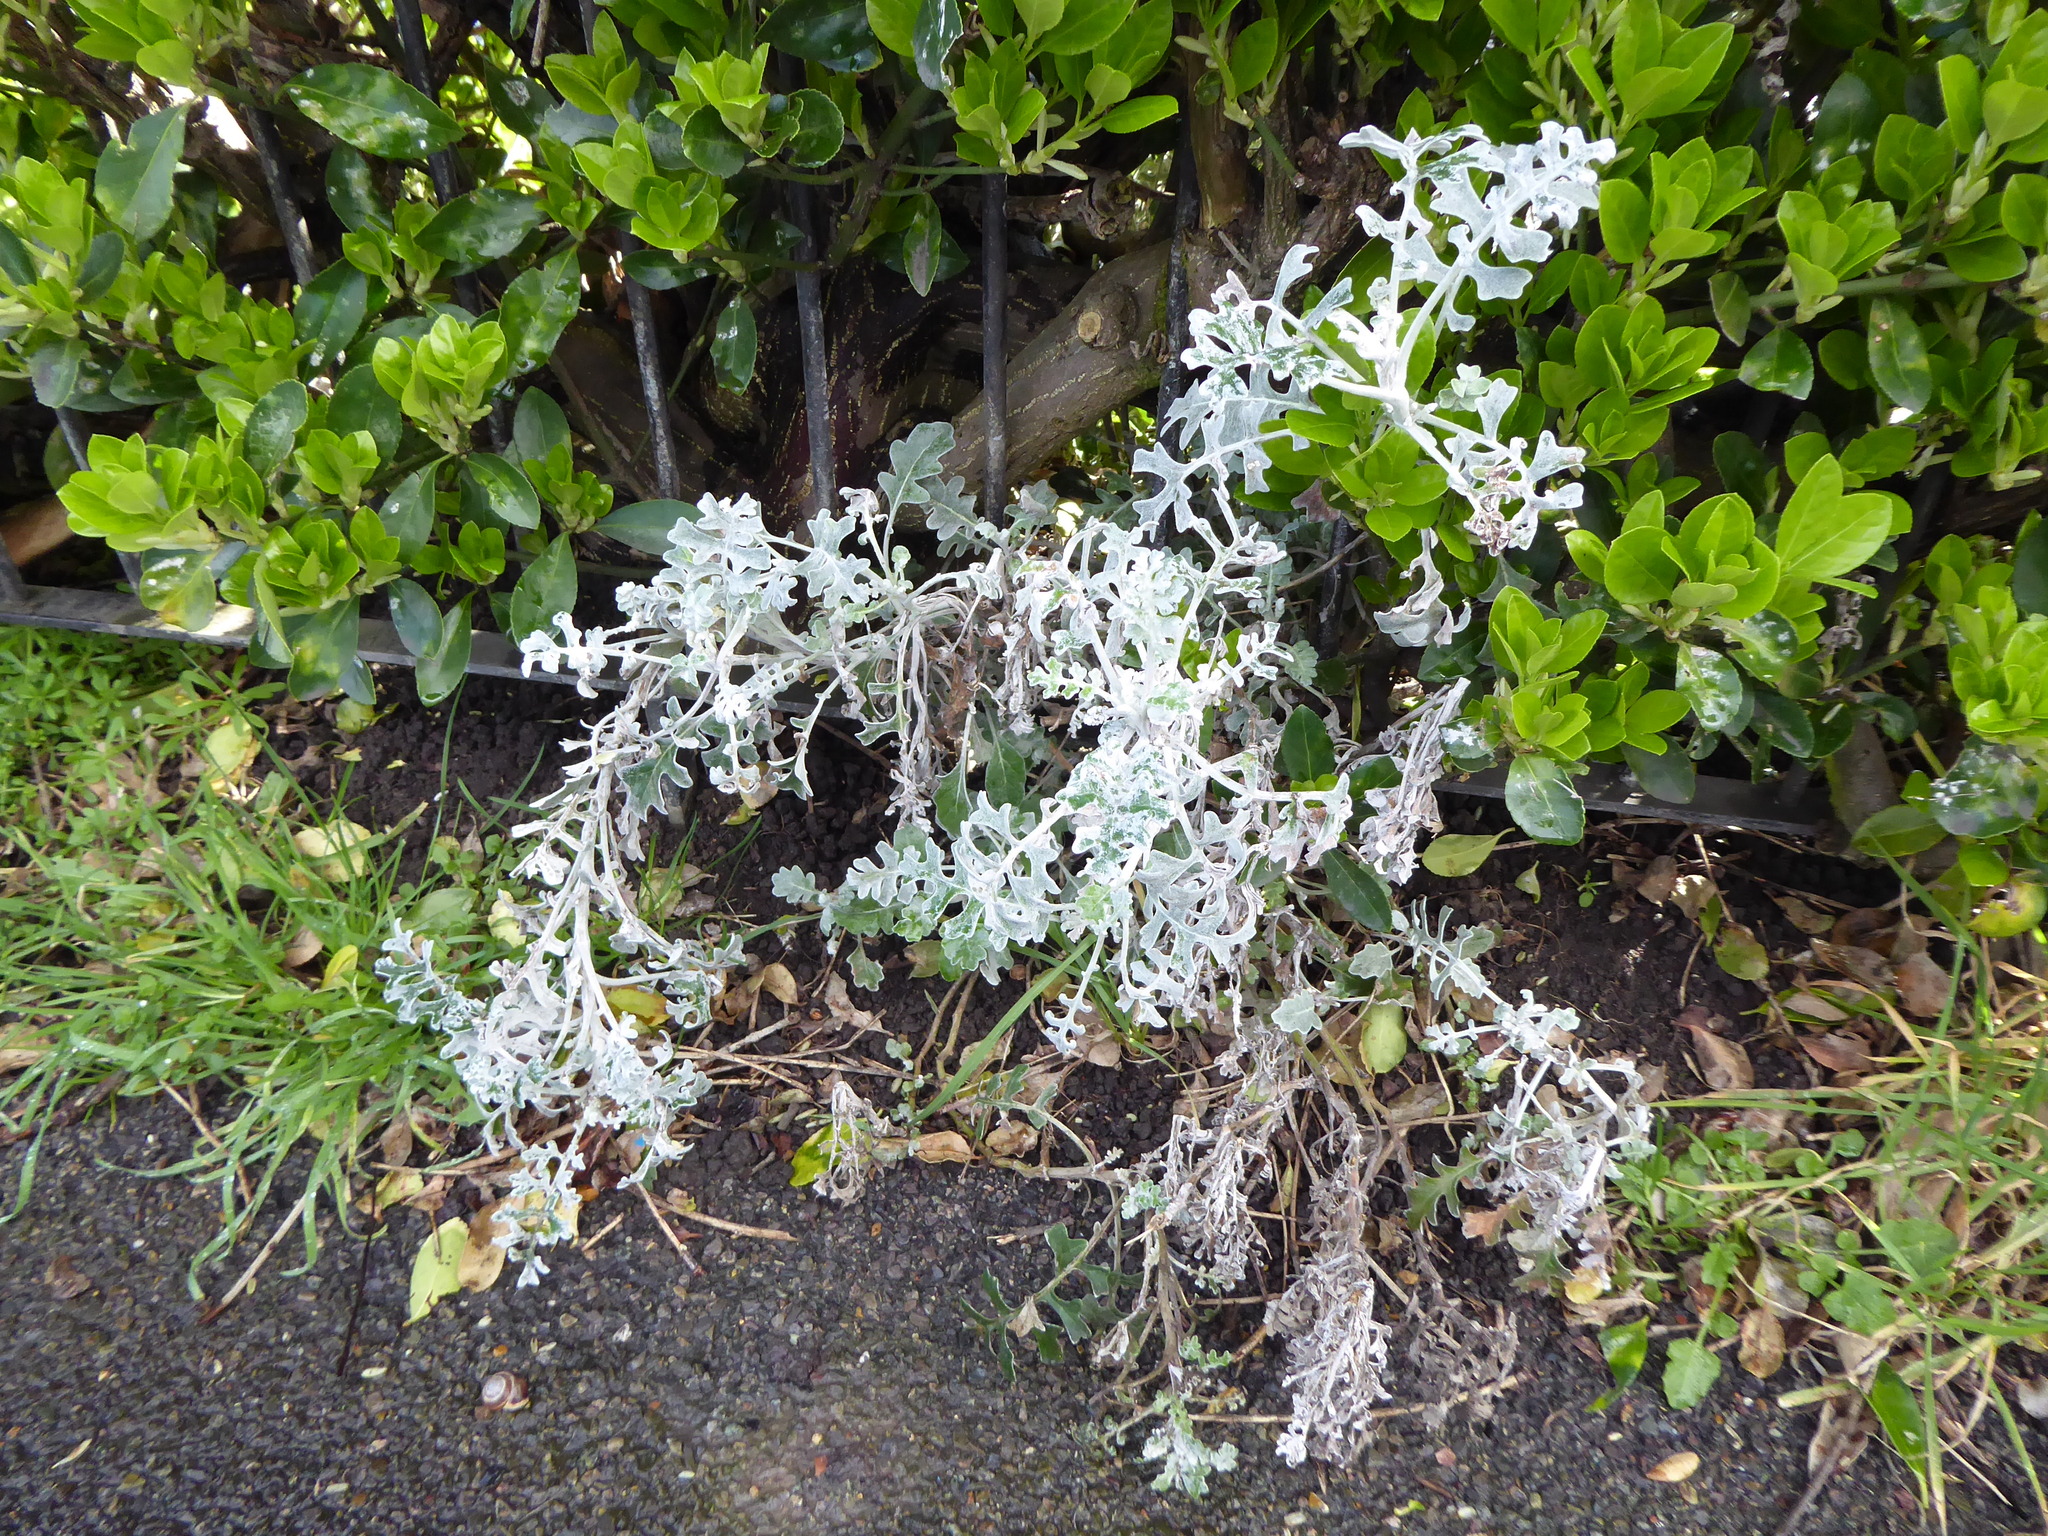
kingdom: Plantae
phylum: Tracheophyta
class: Magnoliopsida
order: Asterales
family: Asteraceae
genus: Jacobaea
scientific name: Jacobaea maritima
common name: Silver ragwort
